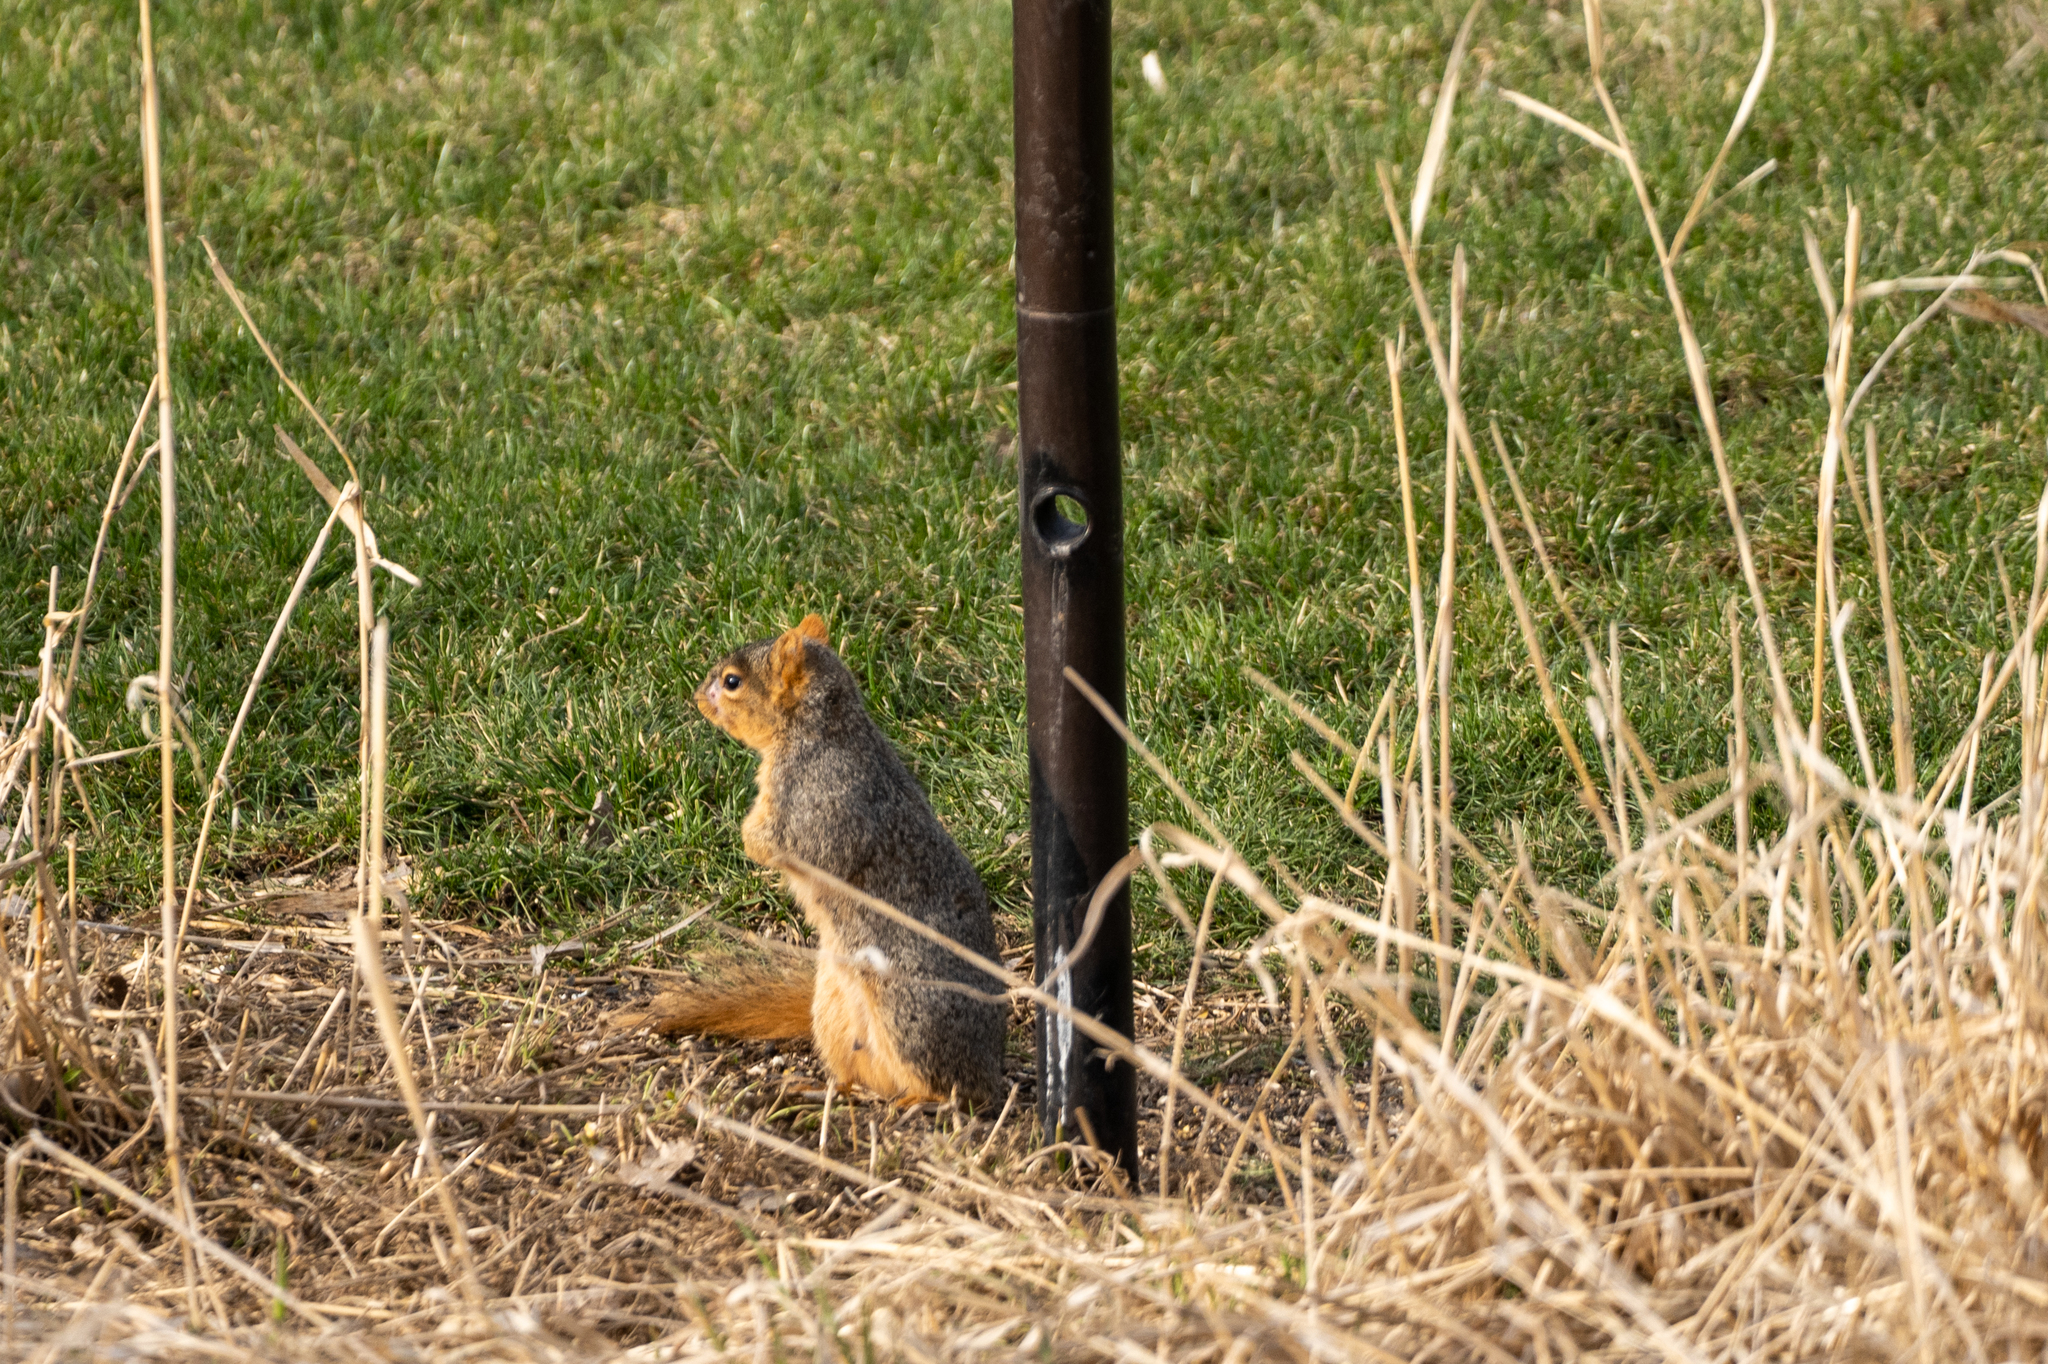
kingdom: Animalia
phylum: Chordata
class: Mammalia
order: Rodentia
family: Sciuridae
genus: Sciurus
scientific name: Sciurus niger
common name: Fox squirrel
